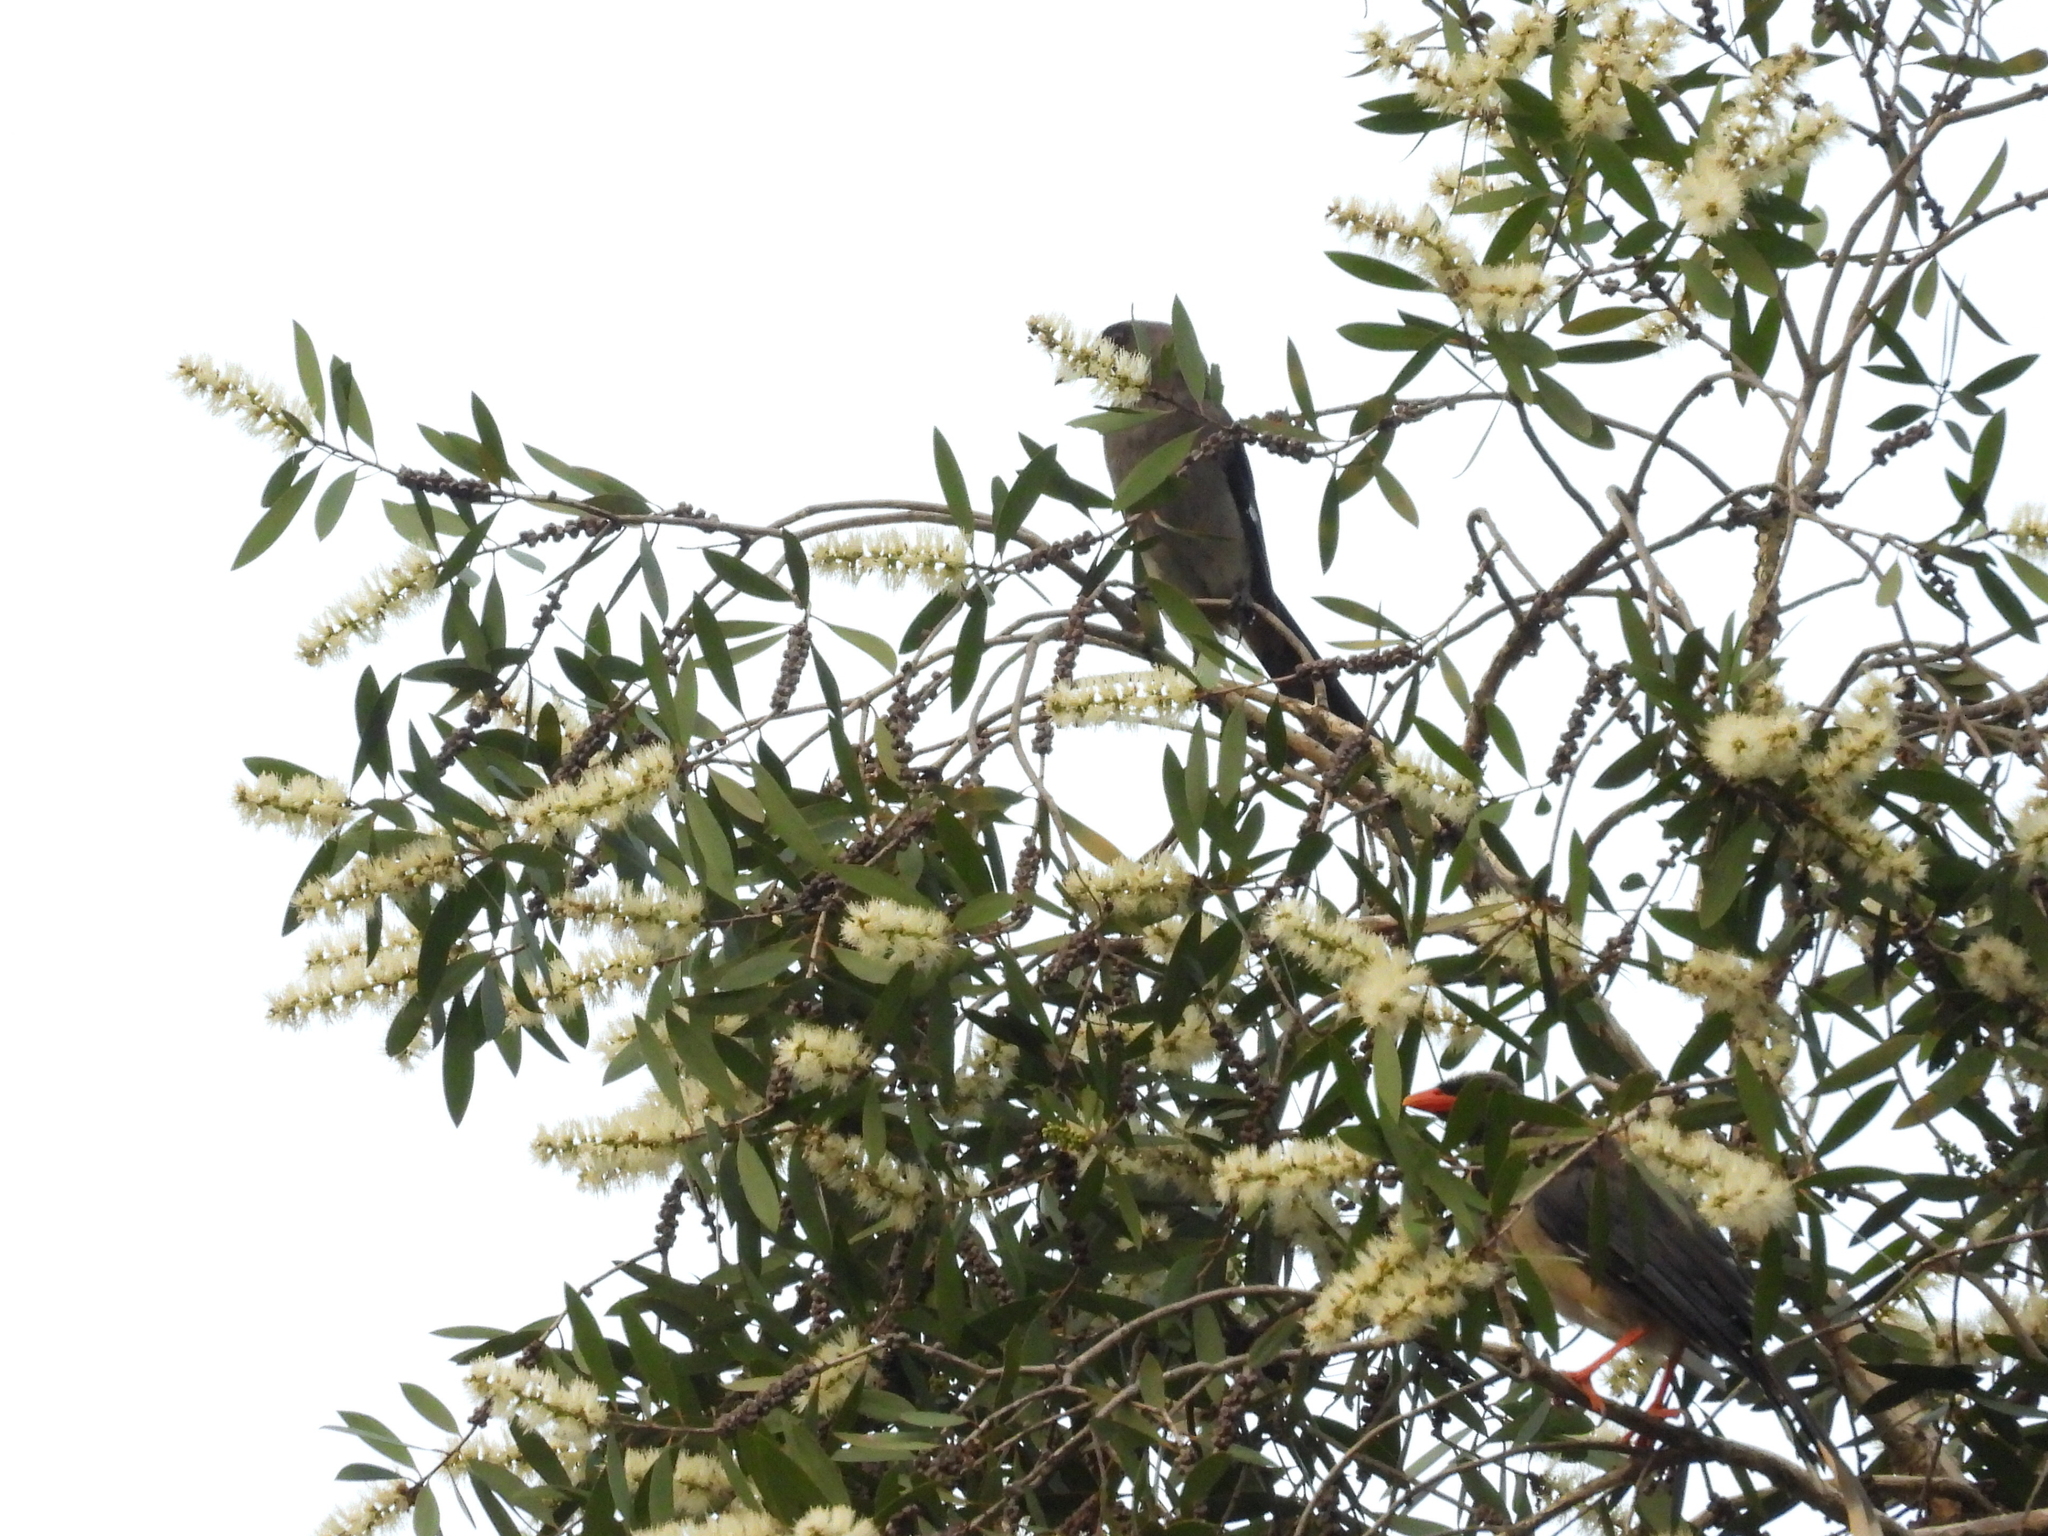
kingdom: Animalia
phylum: Chordata
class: Aves
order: Passeriformes
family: Corvidae
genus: Dendrocitta
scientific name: Dendrocitta formosae
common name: Grey treepie
